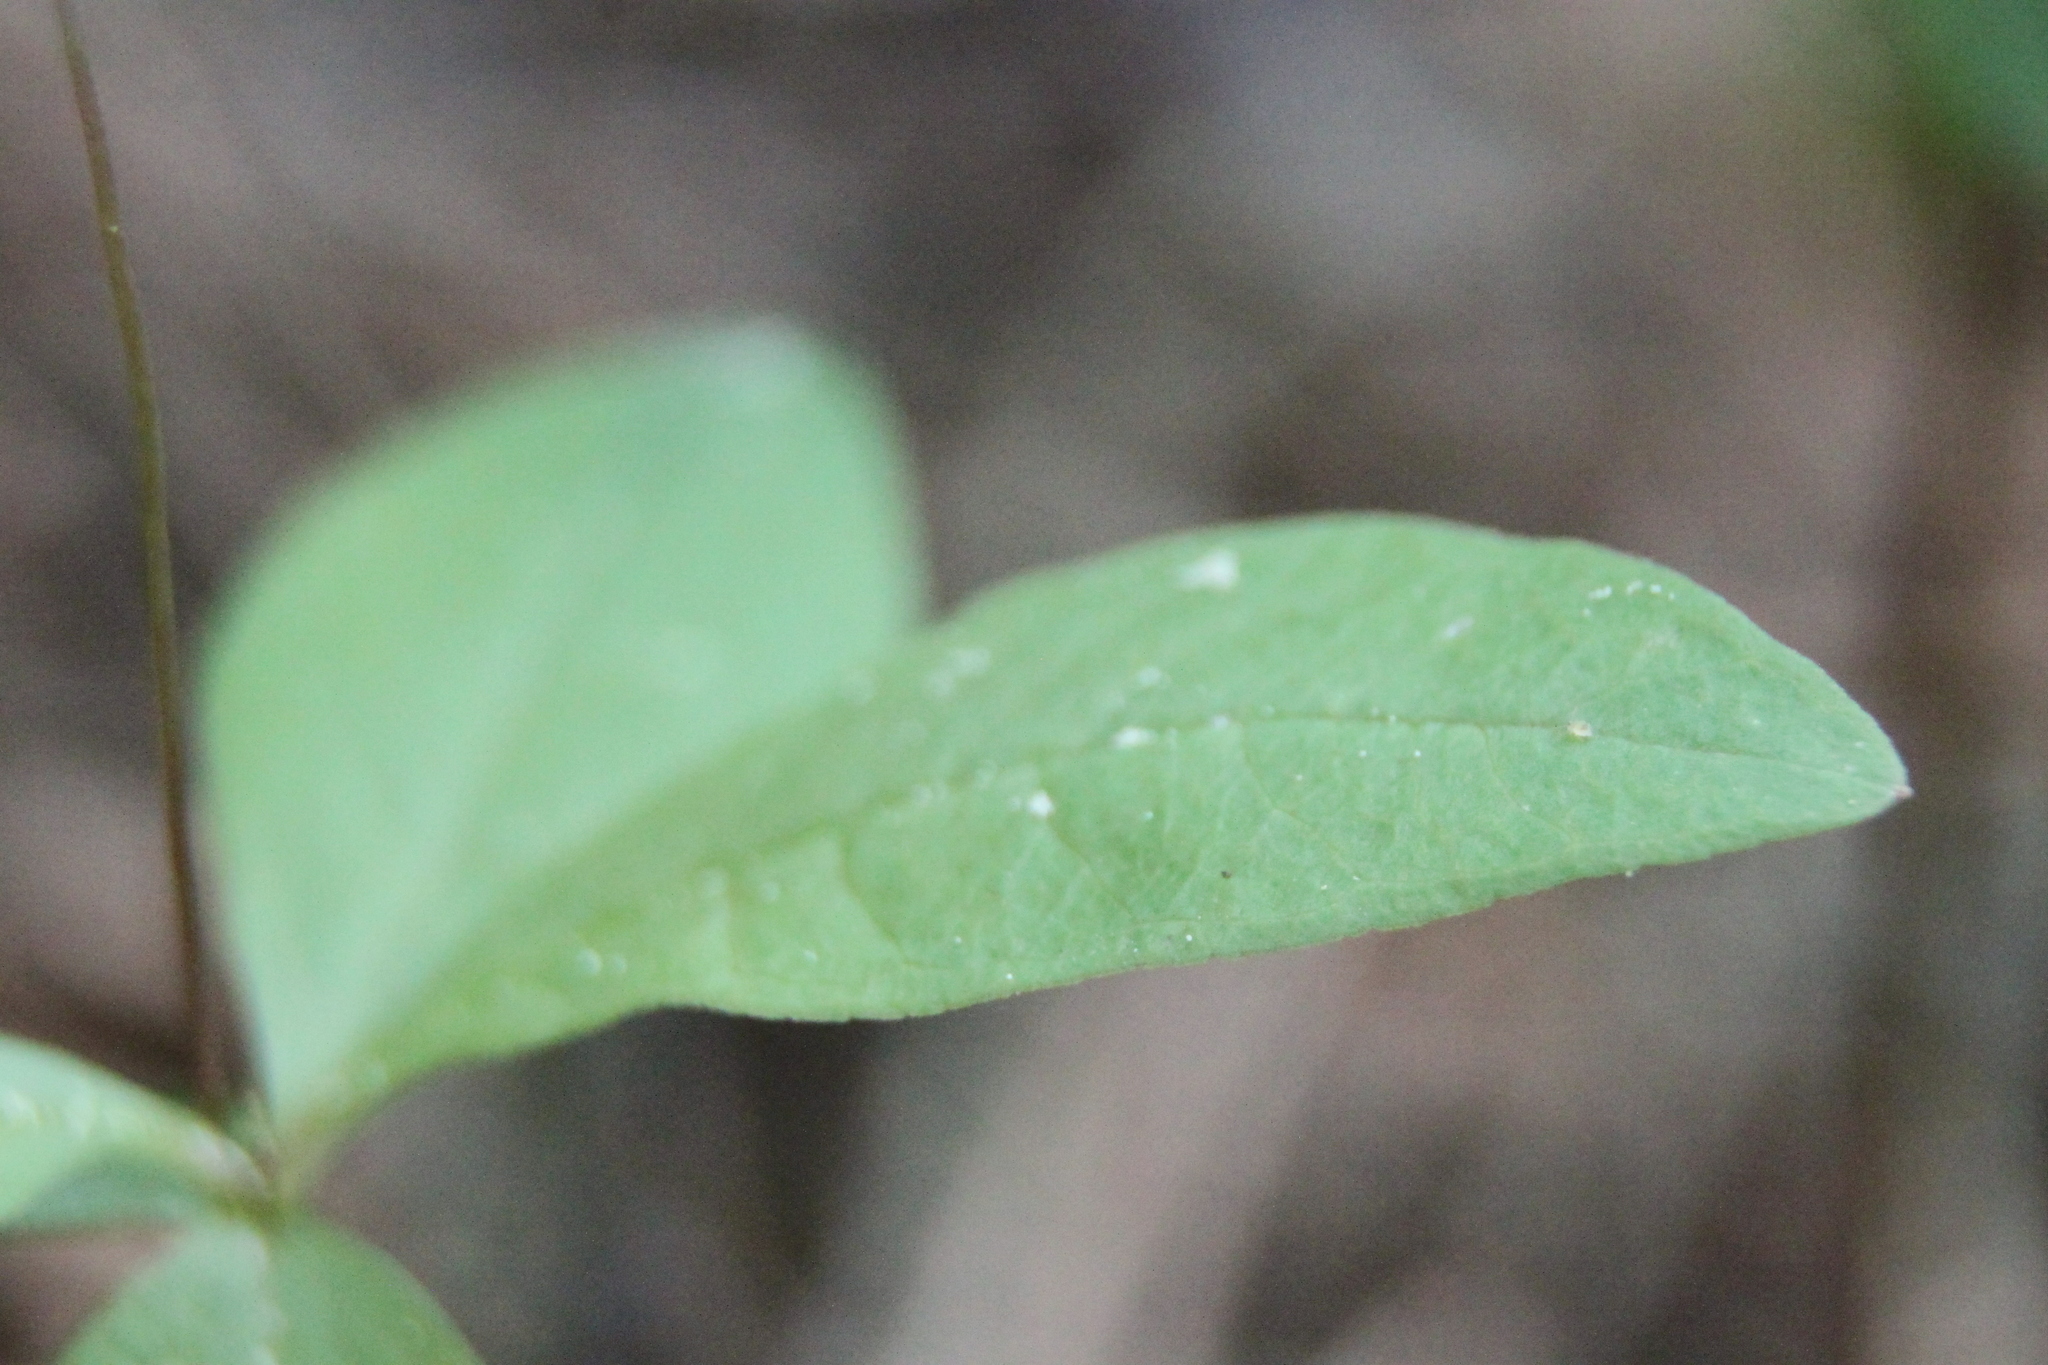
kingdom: Plantae
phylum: Tracheophyta
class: Magnoliopsida
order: Ericales
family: Primulaceae
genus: Lysimachia
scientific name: Lysimachia europaea
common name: Arctic starflower
